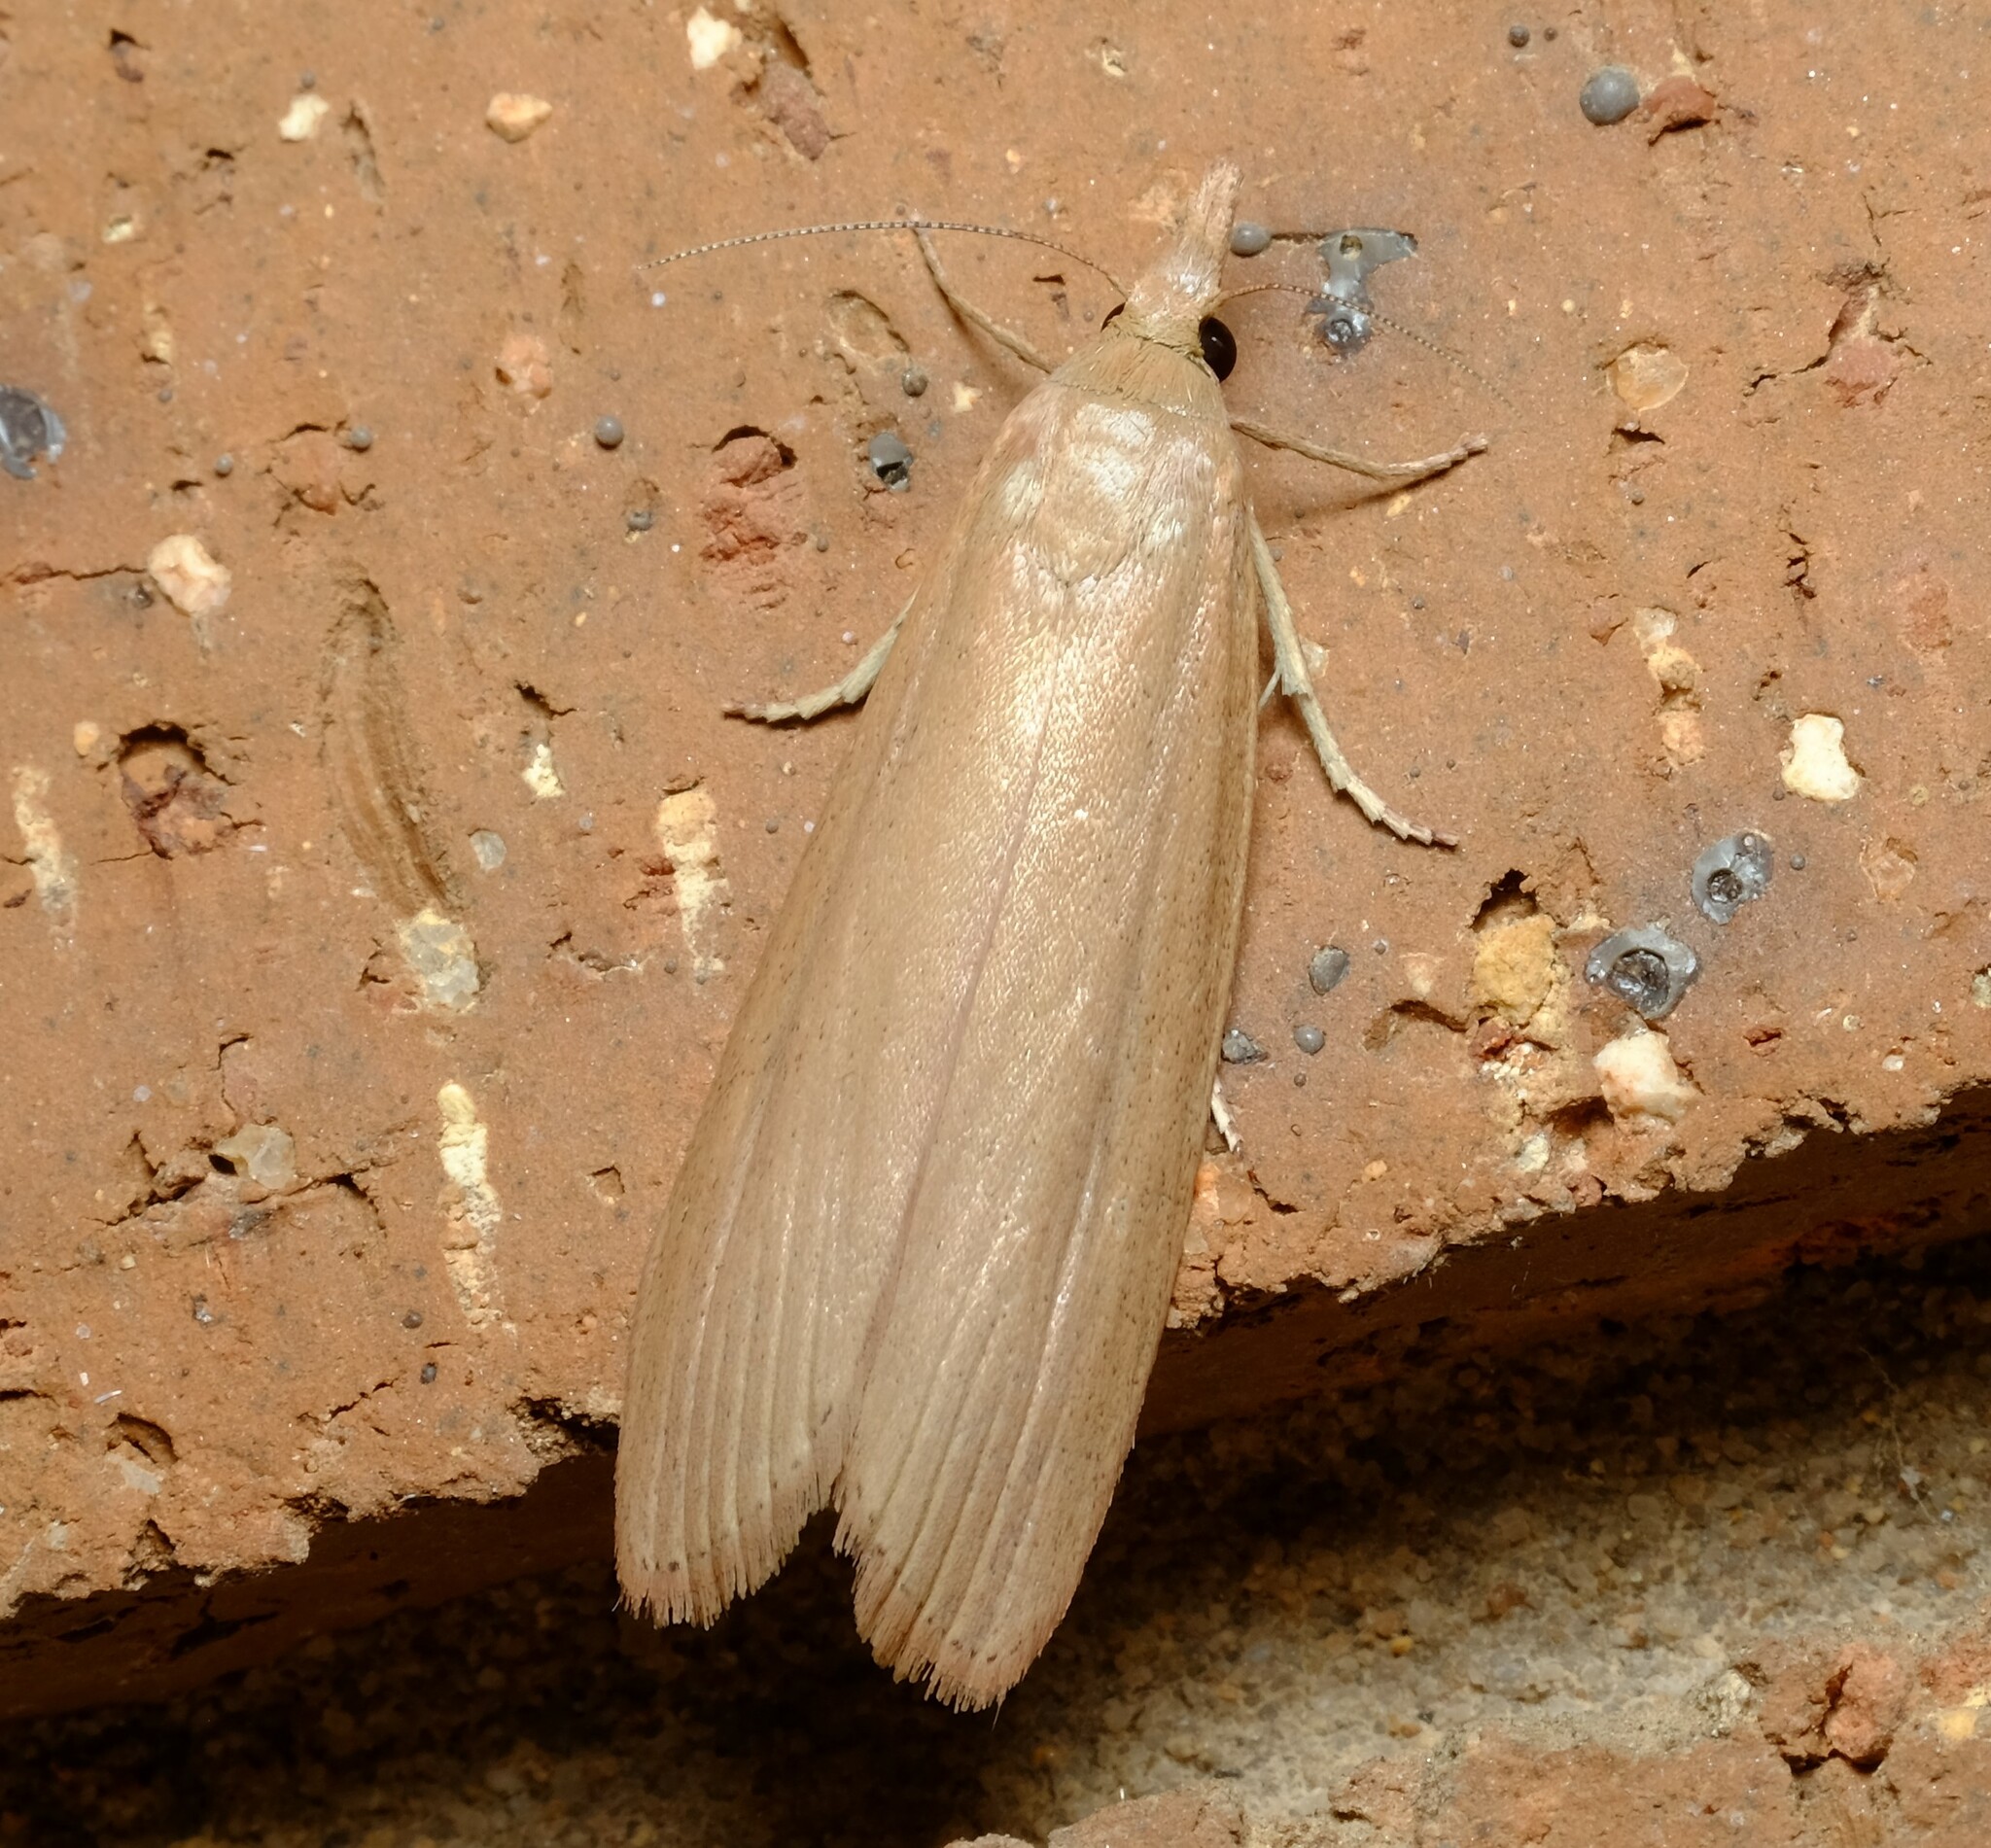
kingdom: Animalia
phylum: Arthropoda
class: Insecta
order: Lepidoptera
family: Pyralidae
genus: Meyriccia
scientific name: Meyriccia latro
